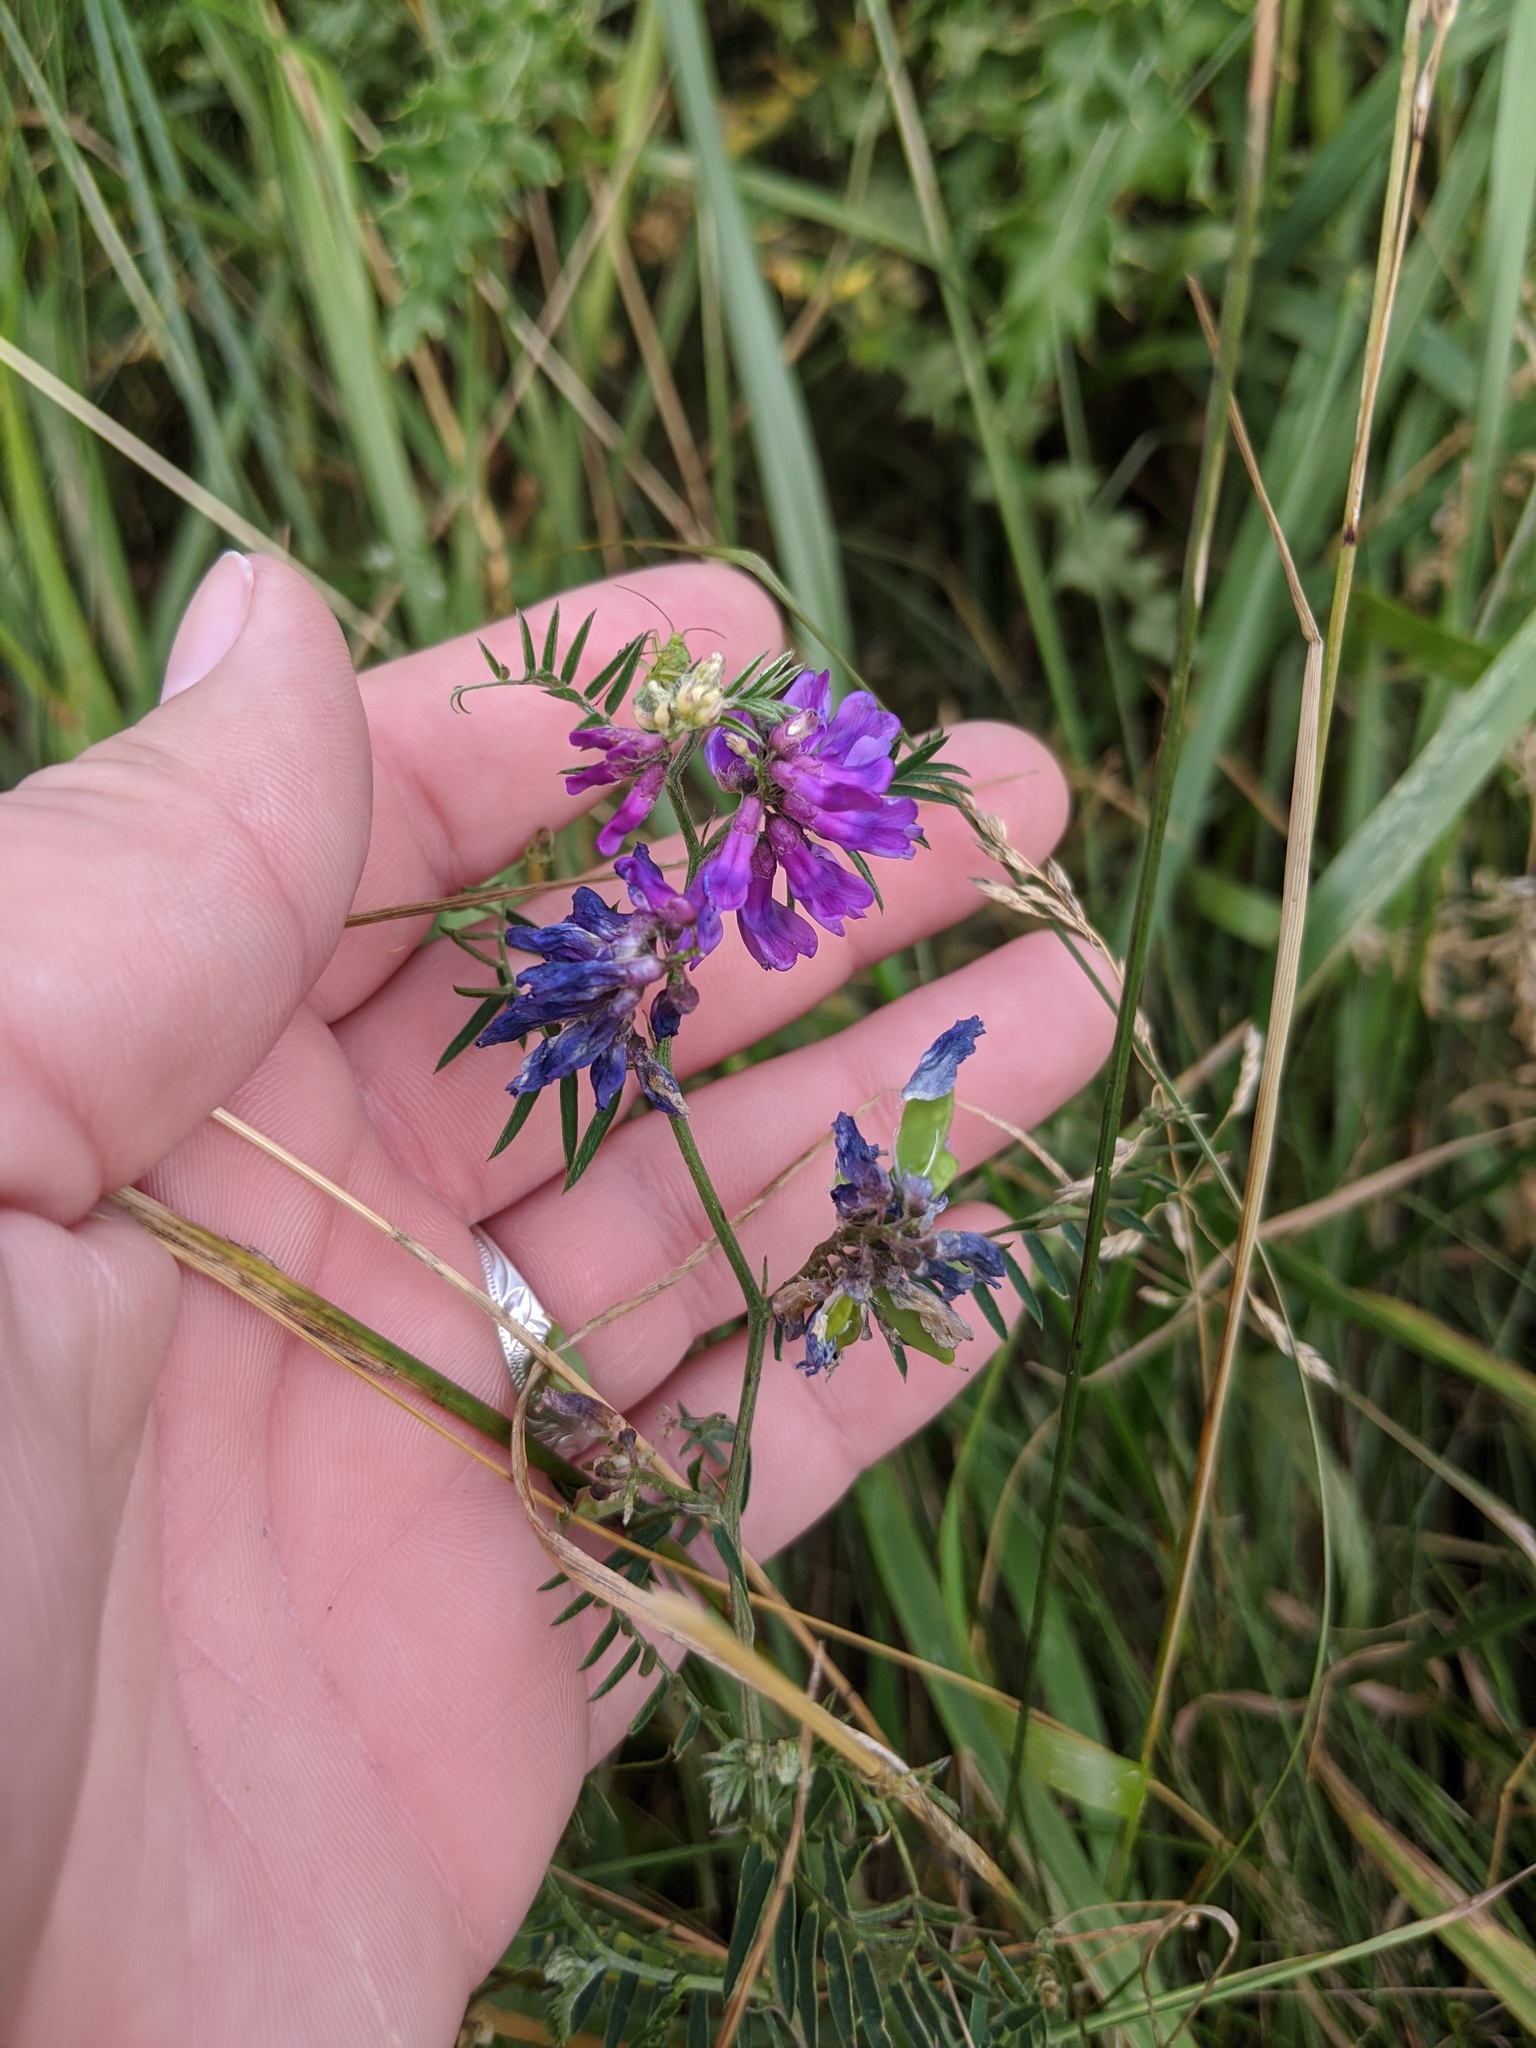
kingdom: Plantae
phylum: Tracheophyta
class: Magnoliopsida
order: Fabales
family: Fabaceae
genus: Vicia
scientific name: Vicia cracca
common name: Bird vetch
